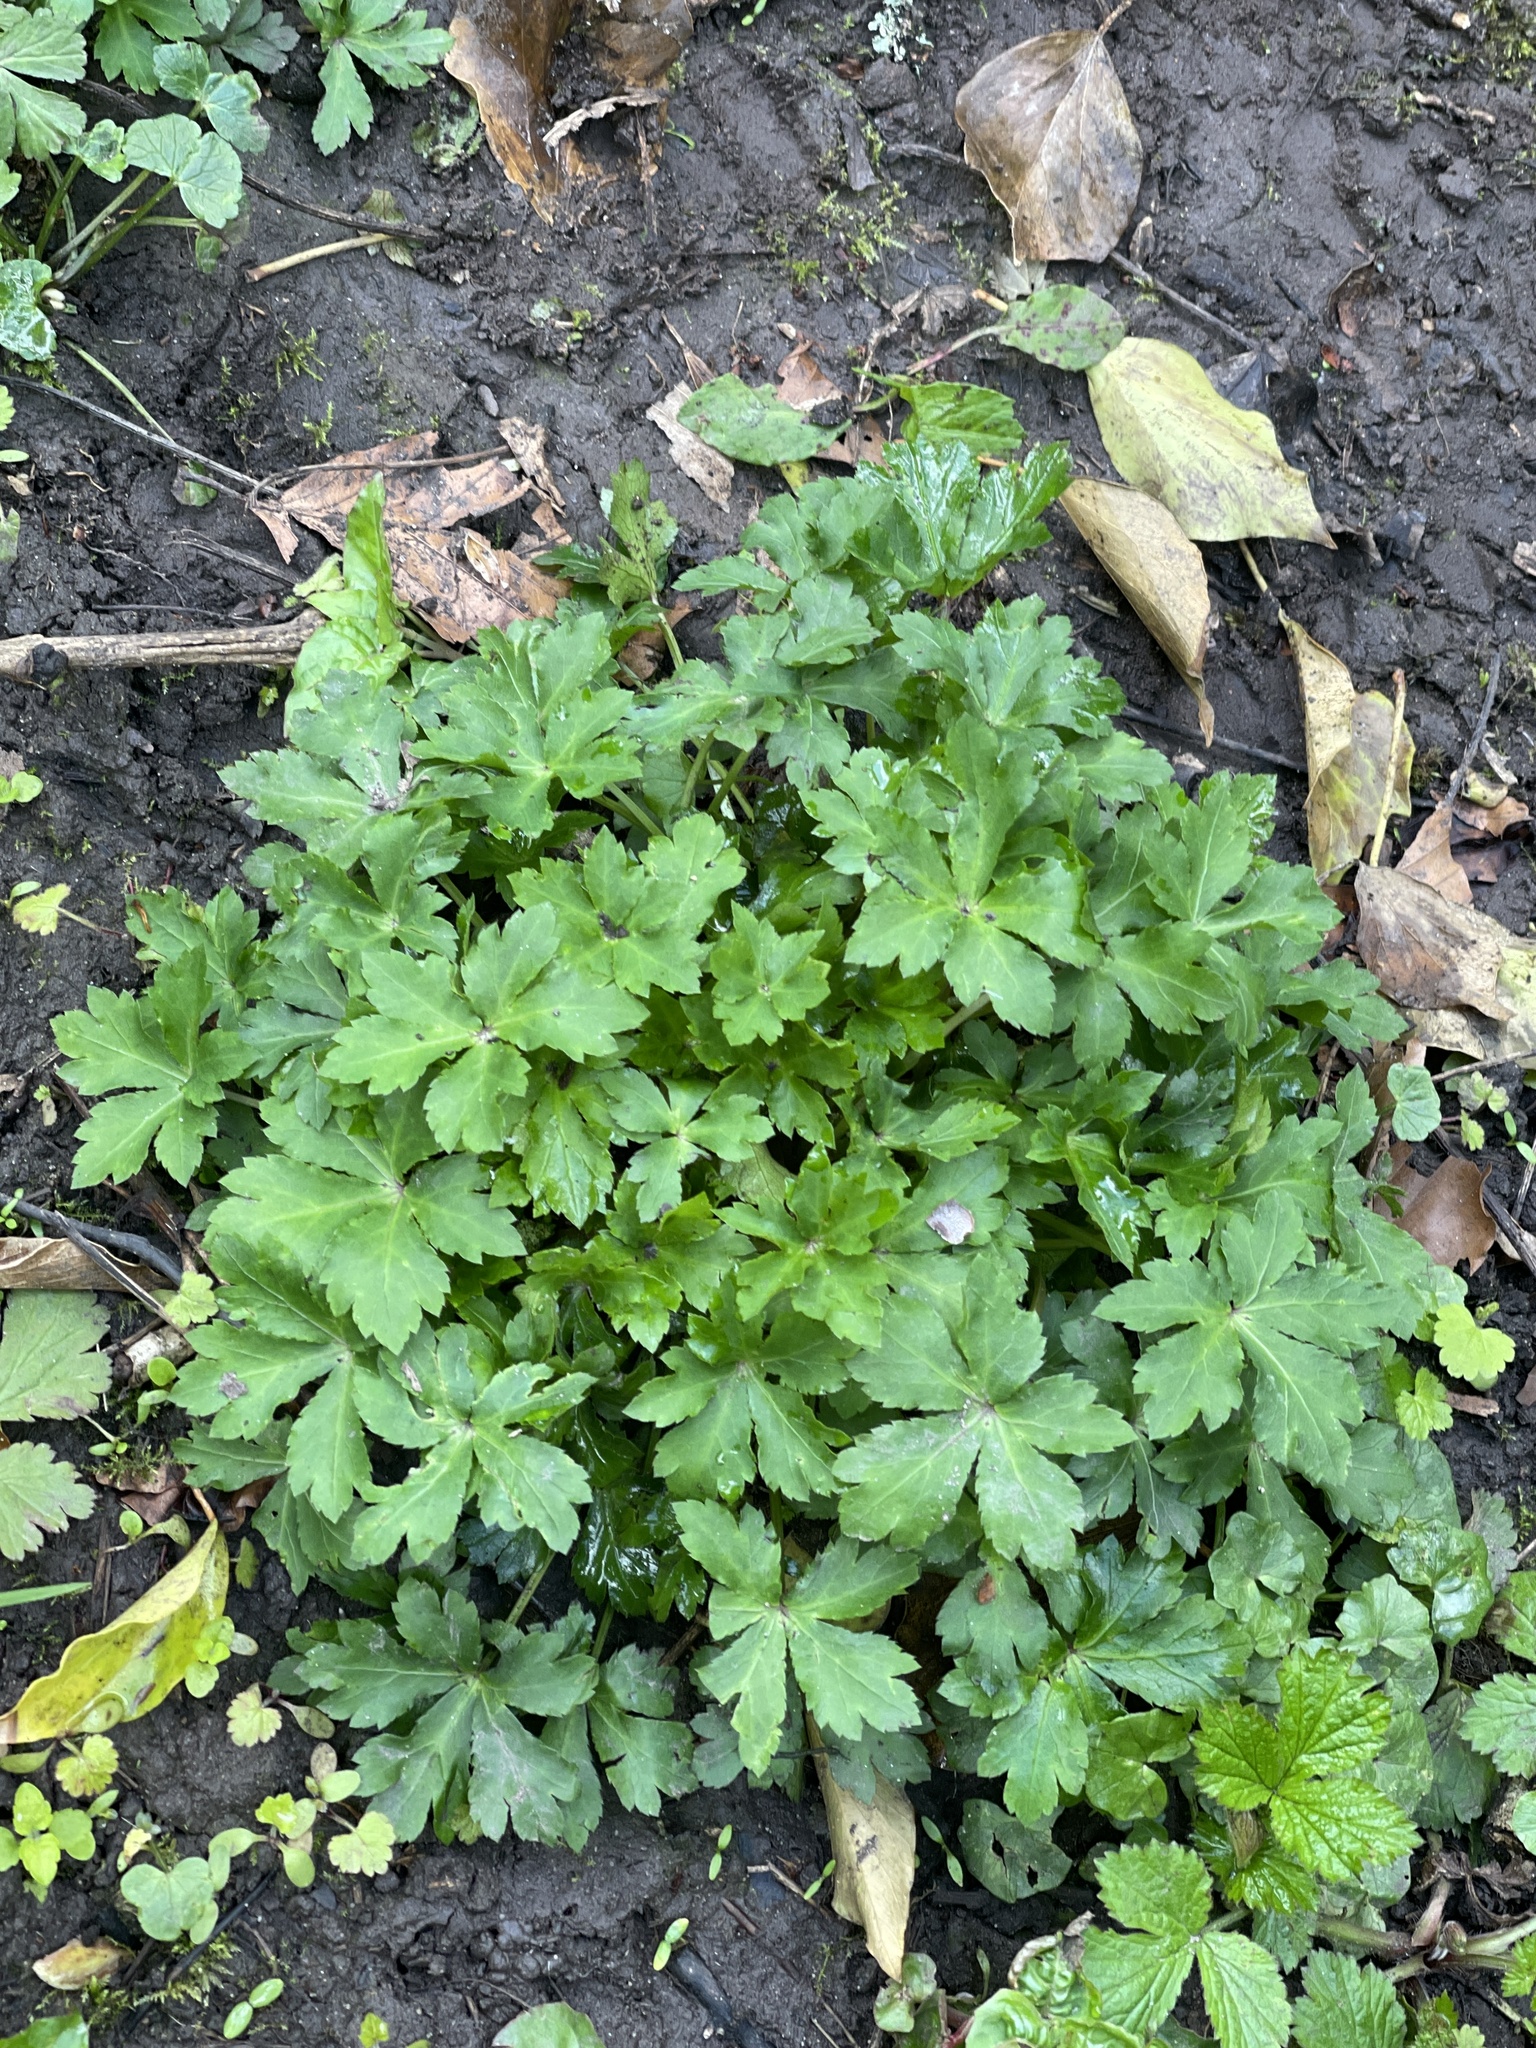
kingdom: Plantae
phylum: Tracheophyta
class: Magnoliopsida
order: Apiales
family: Apiaceae
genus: Sanicula
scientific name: Sanicula europaea
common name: Sanicle
